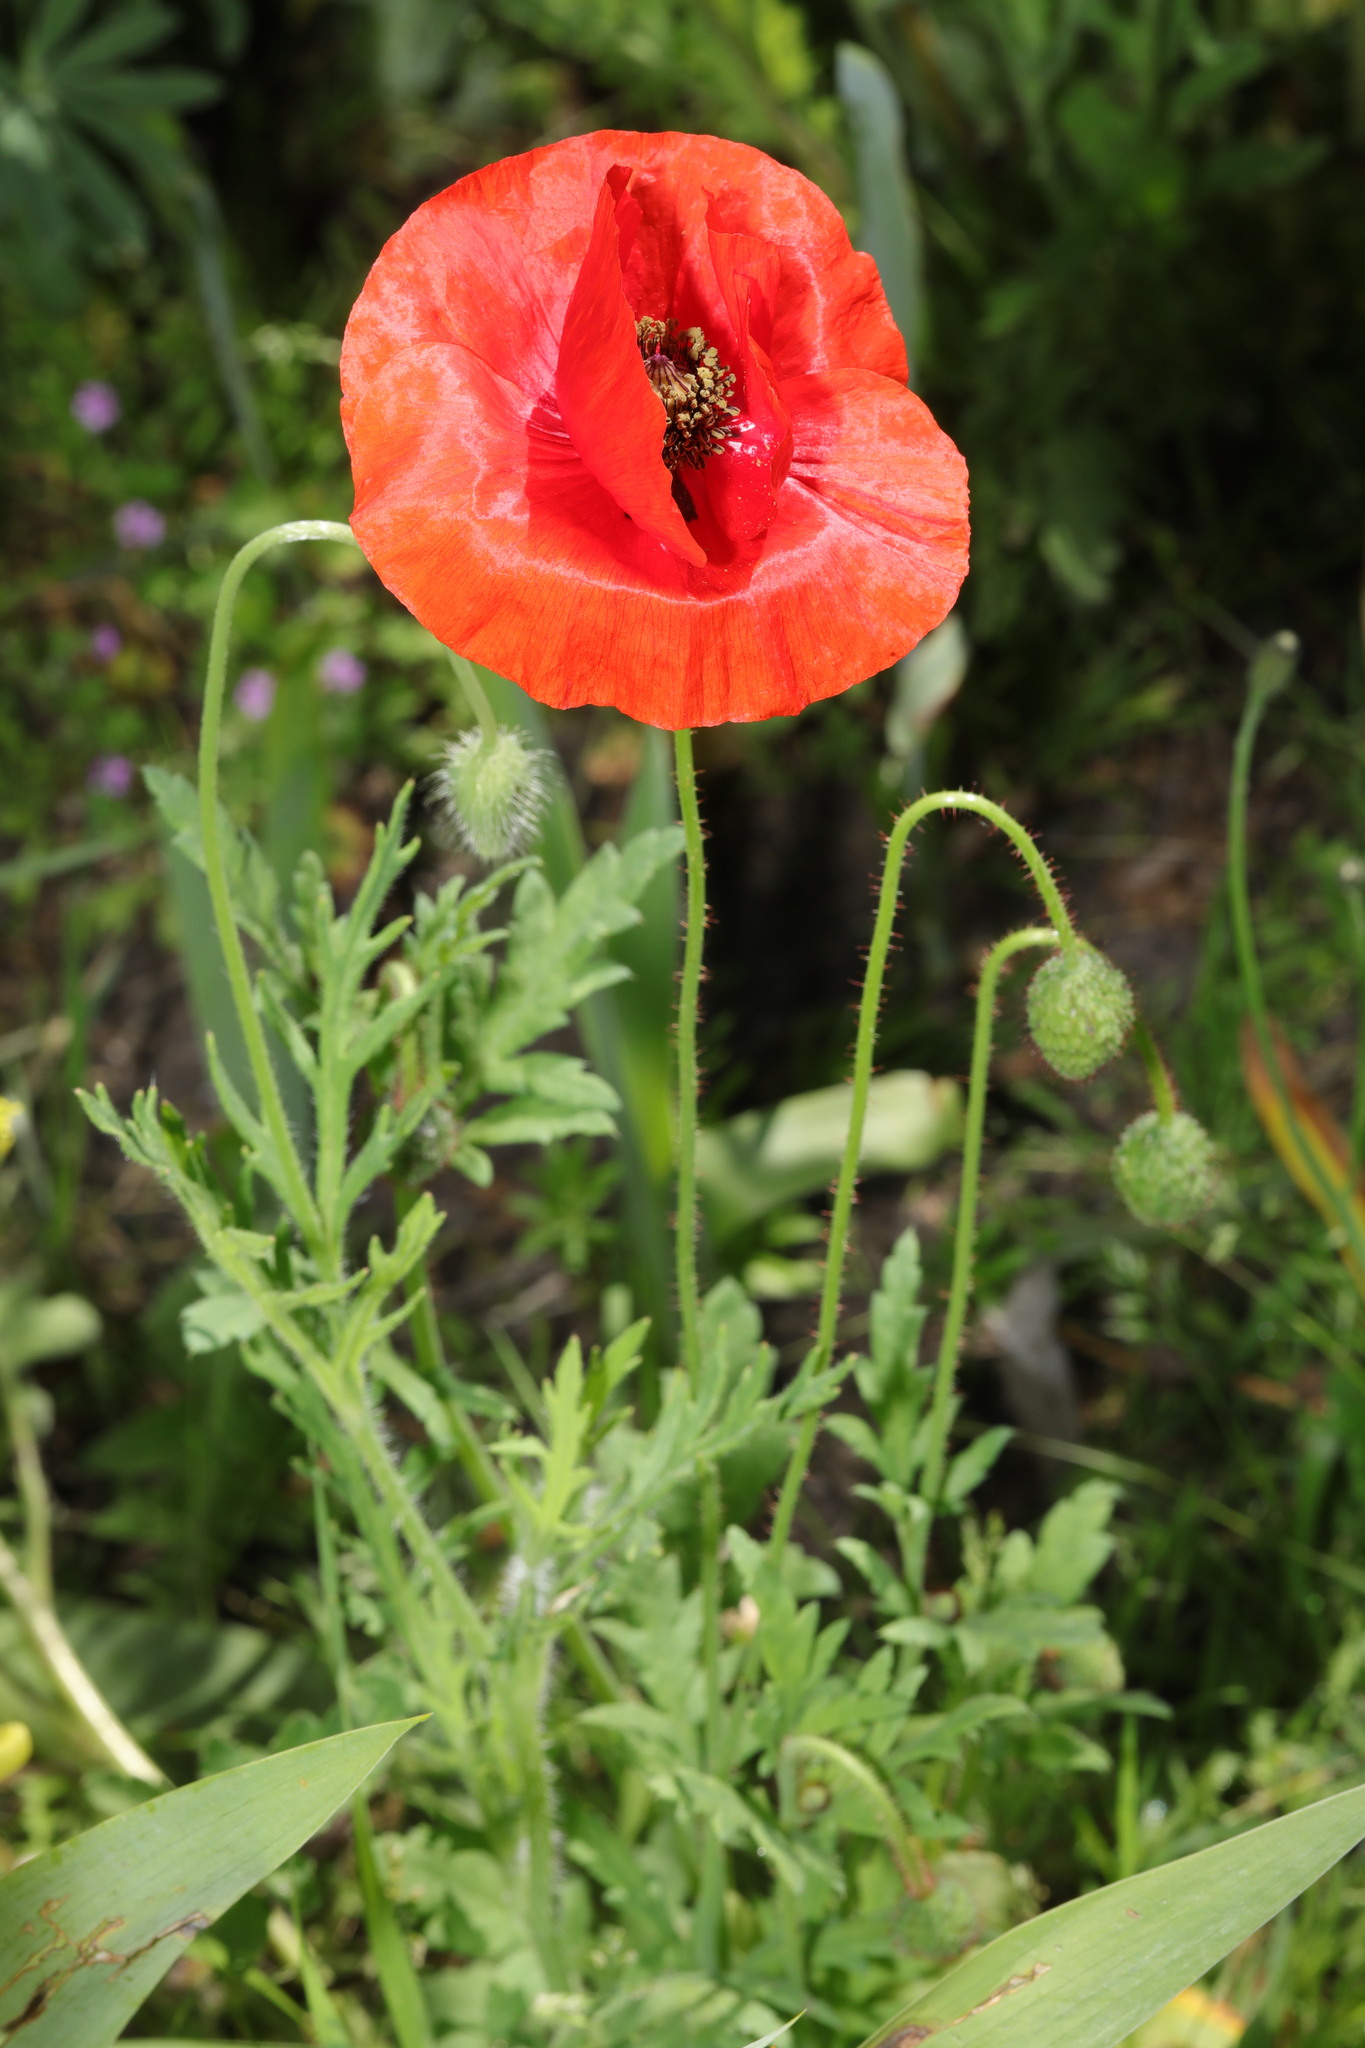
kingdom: Plantae
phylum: Tracheophyta
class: Magnoliopsida
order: Ranunculales
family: Papaveraceae
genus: Papaver
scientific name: Papaver rhoeas
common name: Corn poppy
